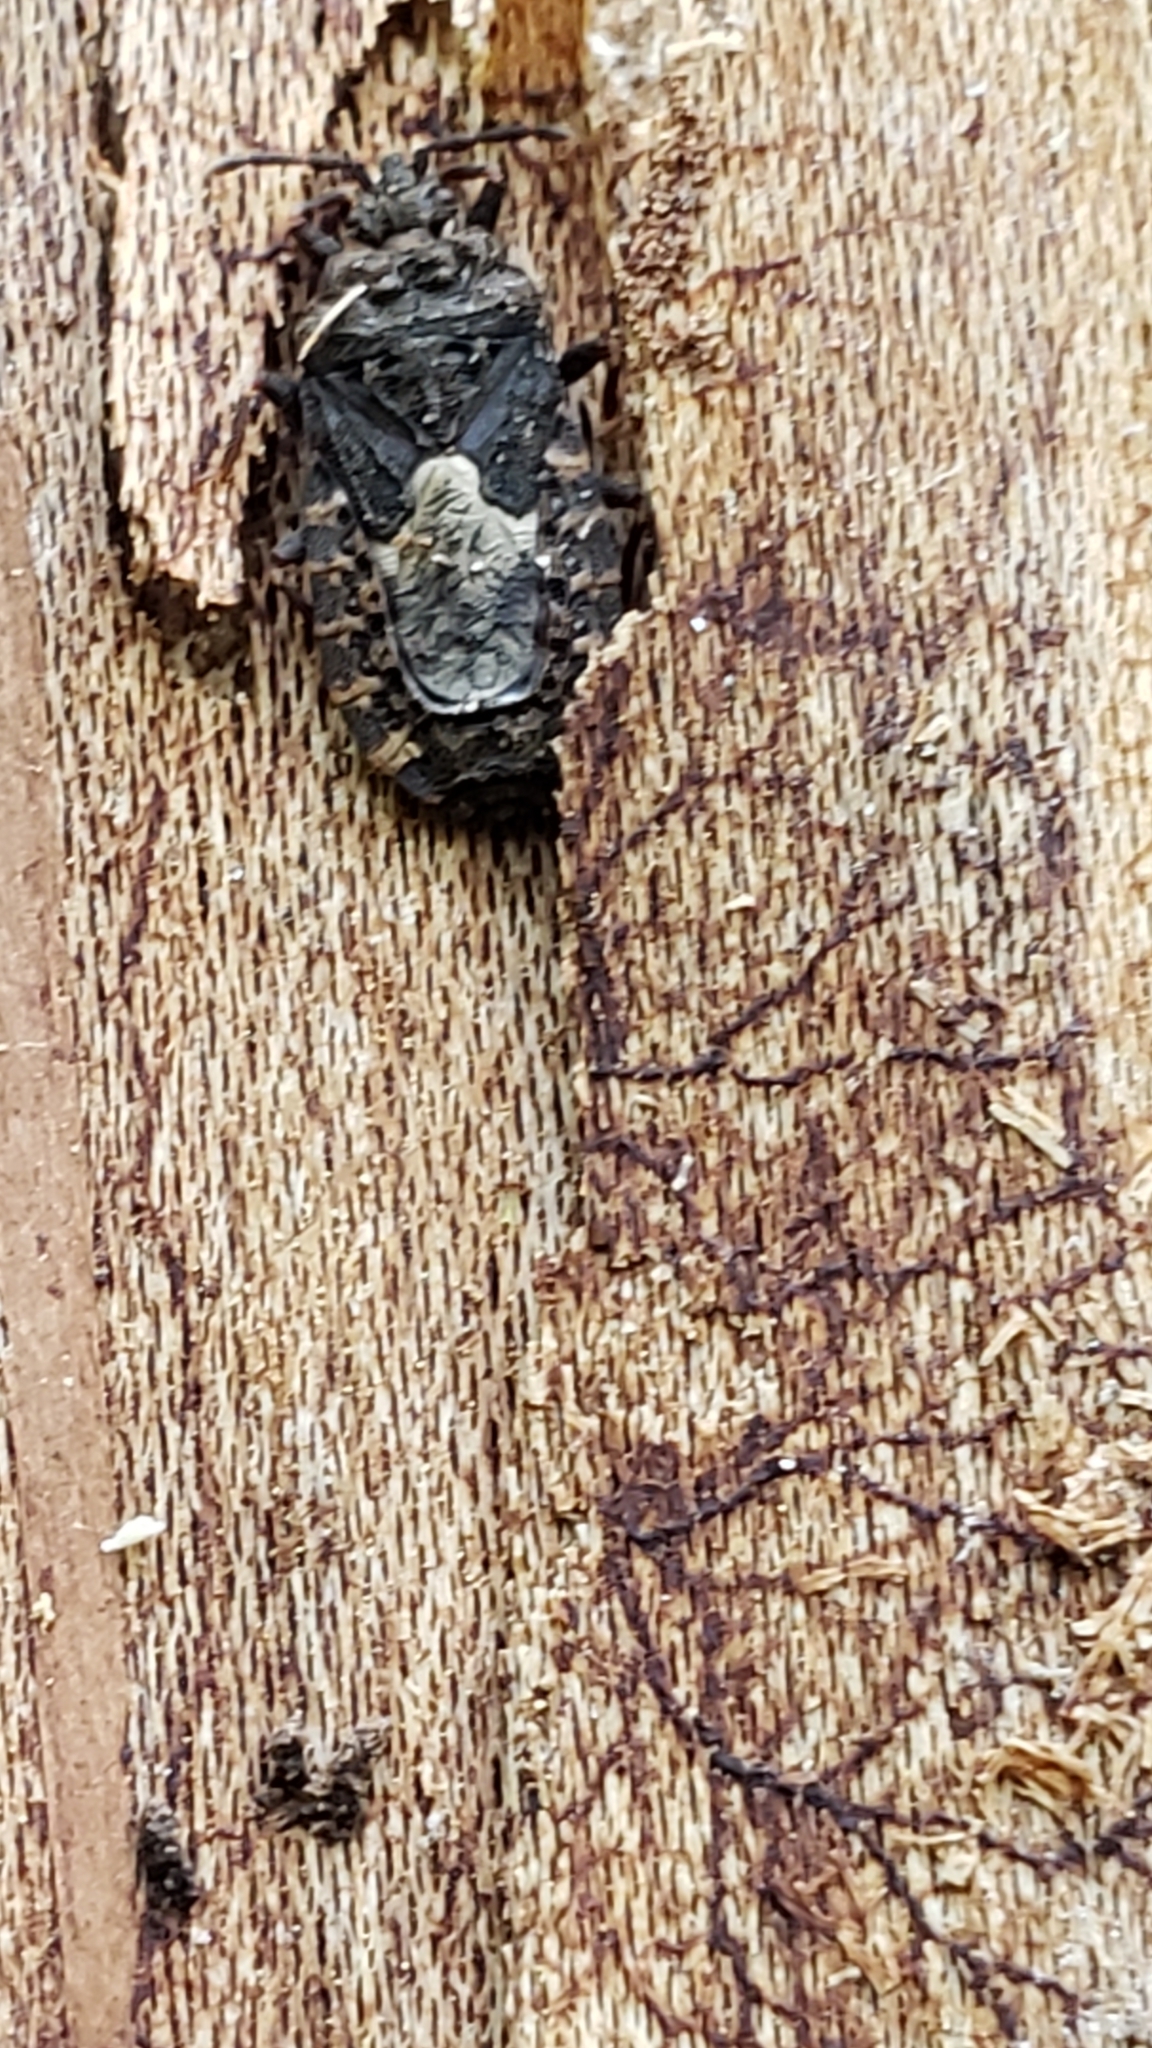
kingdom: Animalia
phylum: Arthropoda
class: Insecta
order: Hemiptera
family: Aradidae
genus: Mezira
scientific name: Mezira
